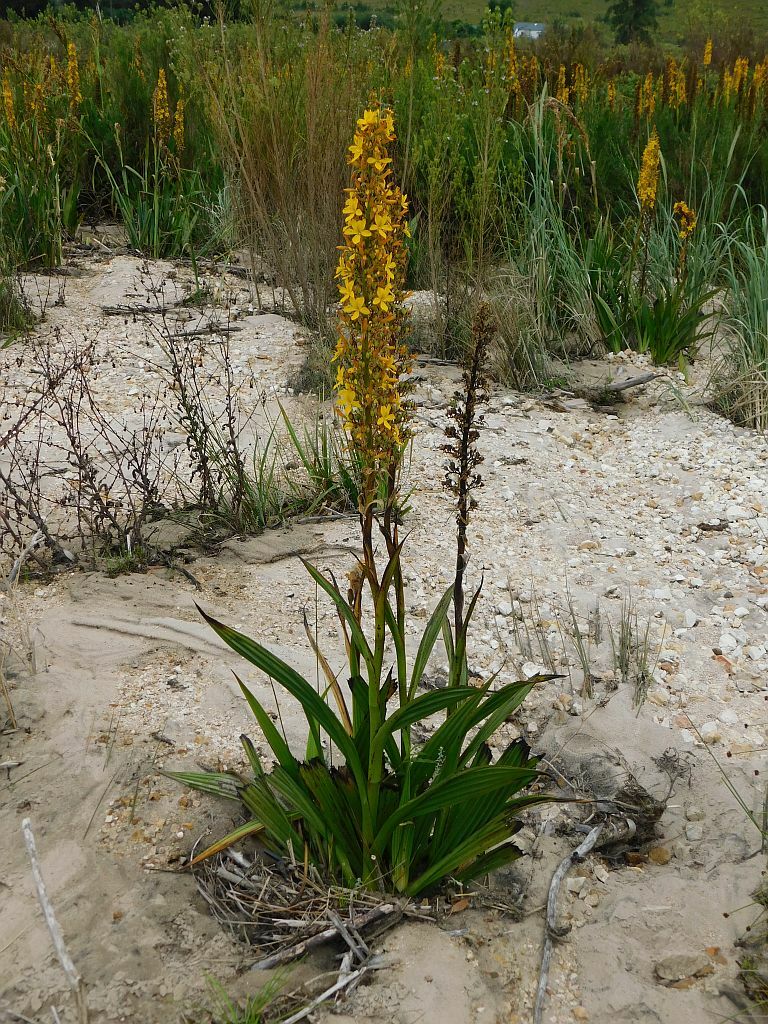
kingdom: Plantae
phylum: Tracheophyta
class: Liliopsida
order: Commelinales
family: Haemodoraceae
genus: Wachendorfia
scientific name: Wachendorfia thyrsiflora
